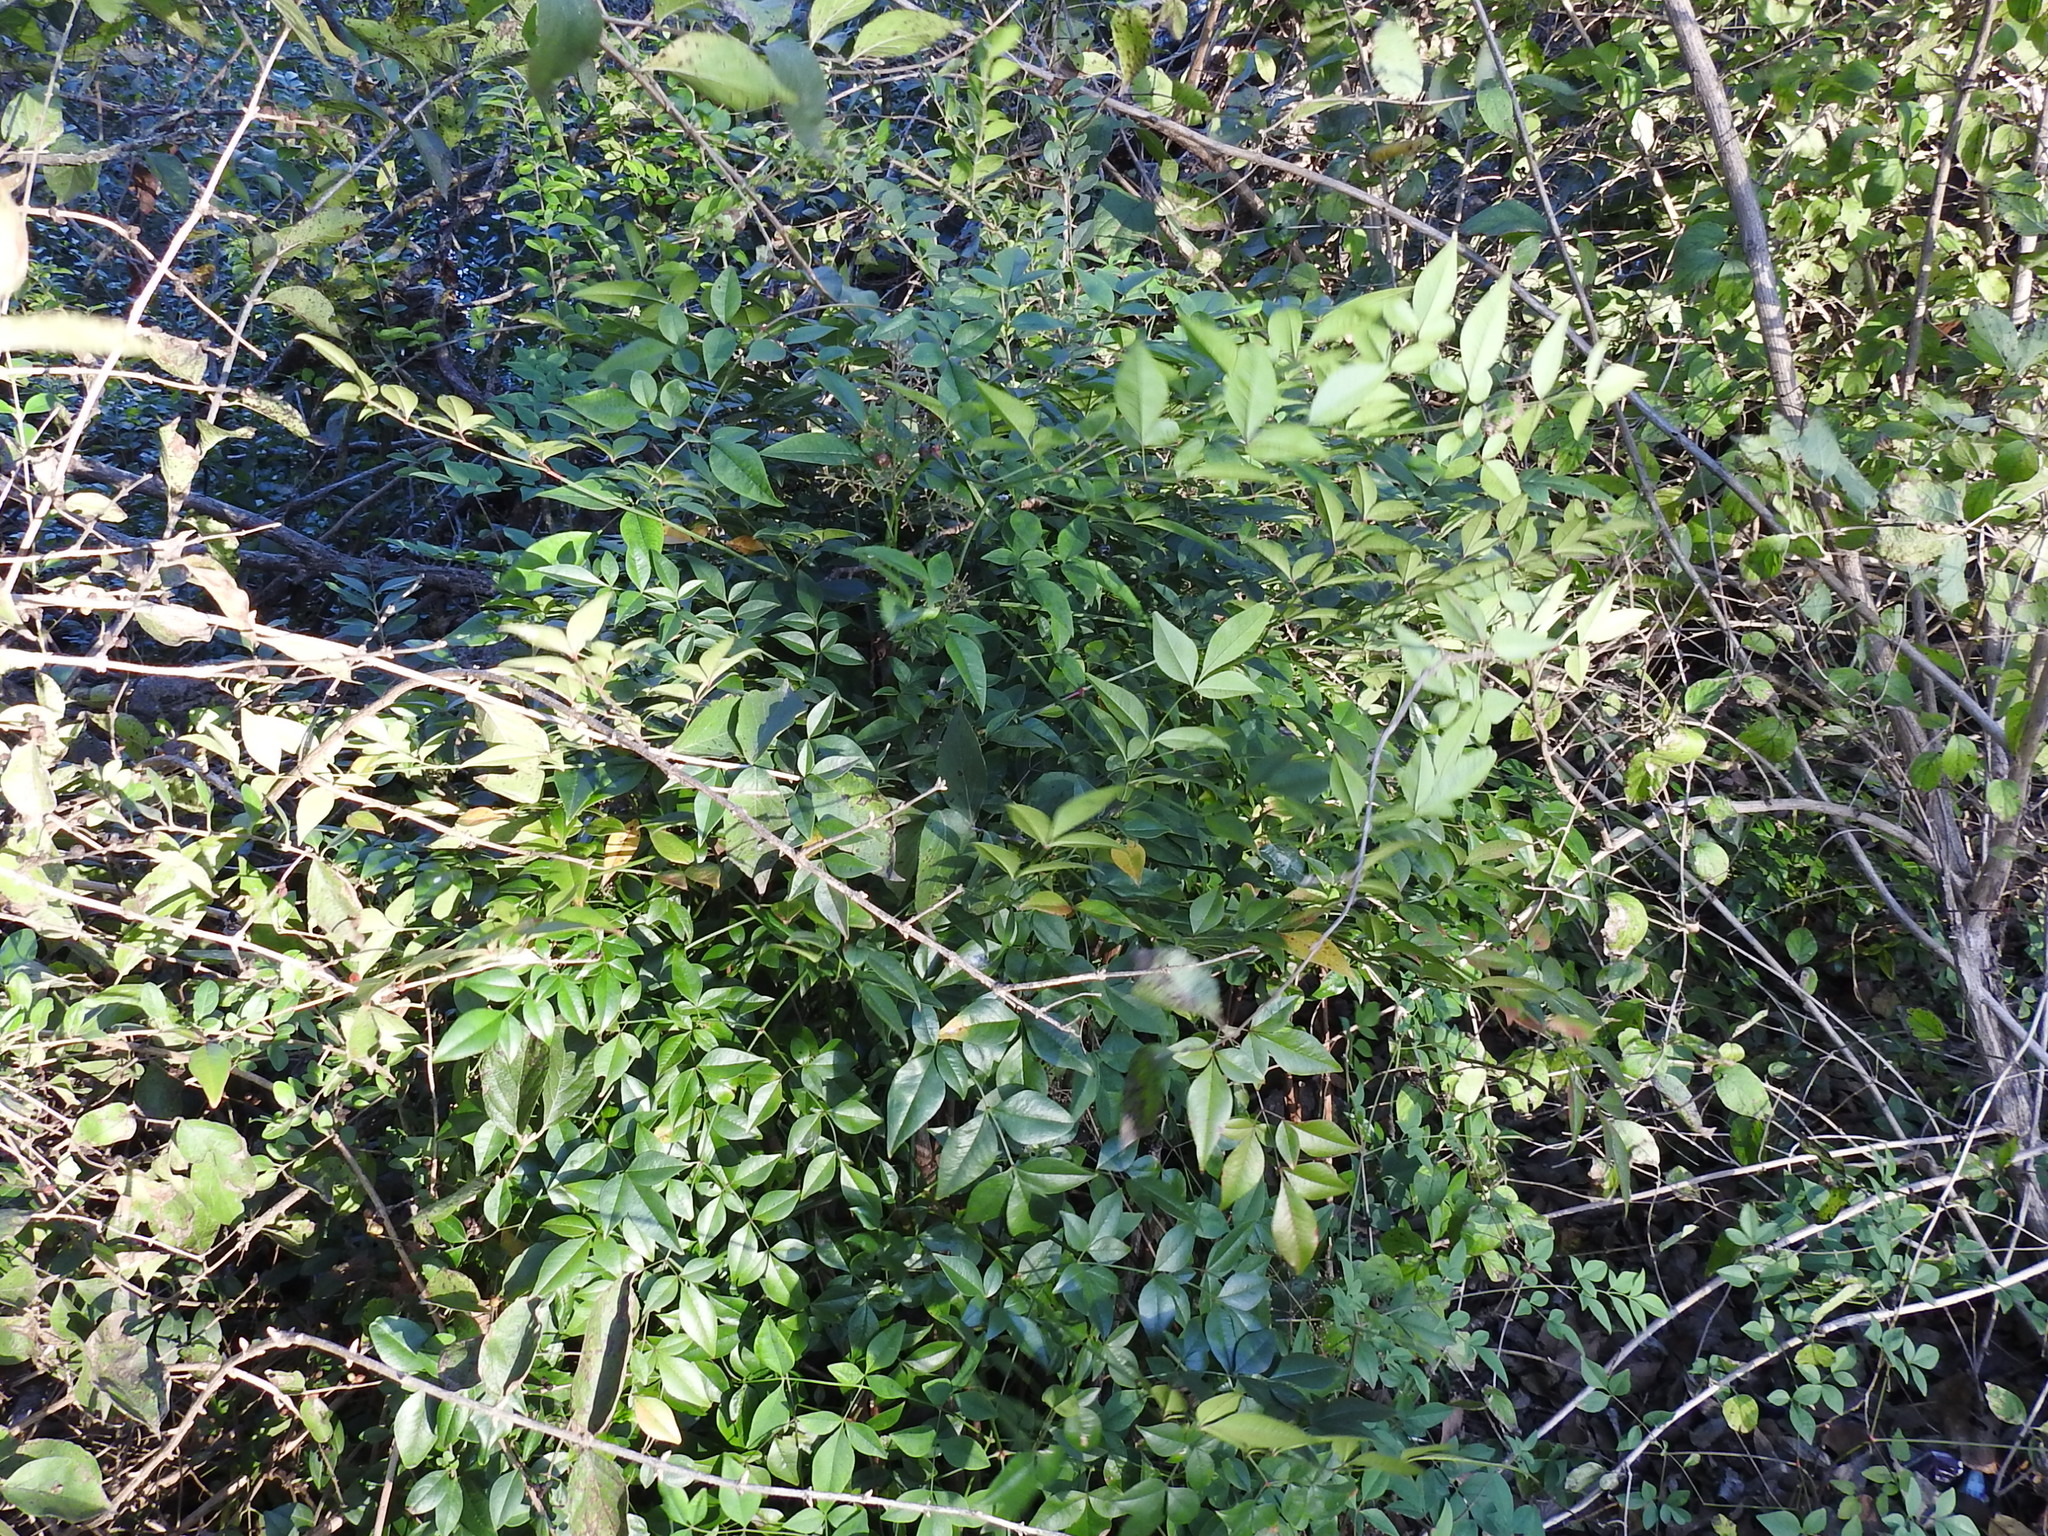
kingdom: Plantae
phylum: Tracheophyta
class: Magnoliopsida
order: Ranunculales
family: Berberidaceae
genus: Nandina
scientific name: Nandina domestica
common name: Sacred bamboo
